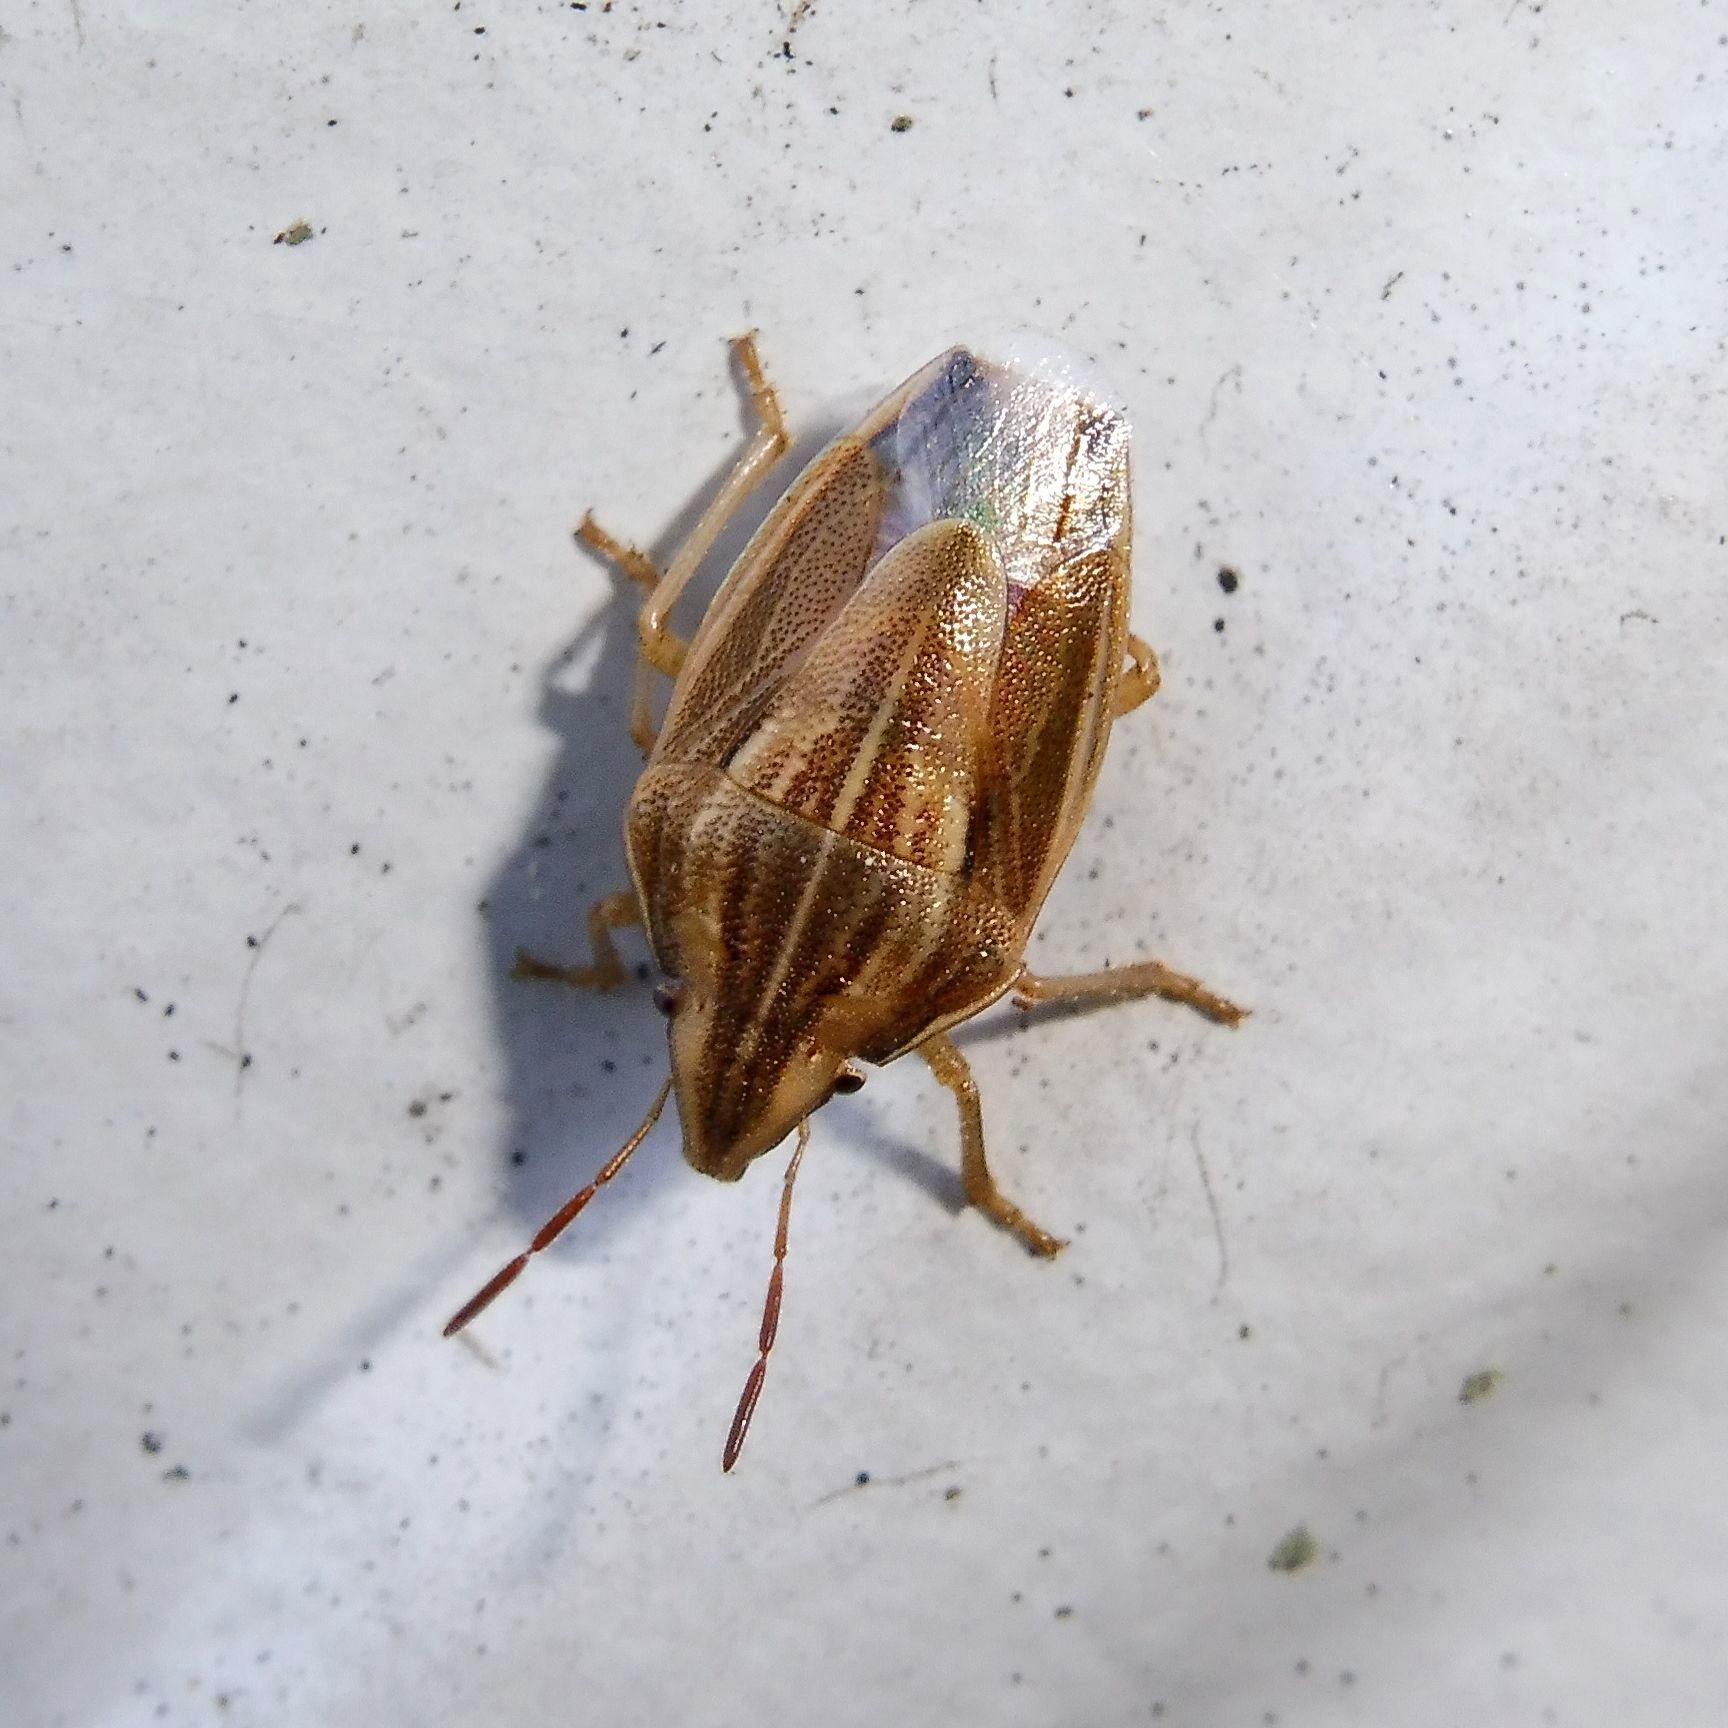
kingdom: Animalia
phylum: Arthropoda
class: Insecta
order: Hemiptera
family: Pentatomidae
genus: Aelia
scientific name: Aelia acuminata
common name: Bishop's mitre
